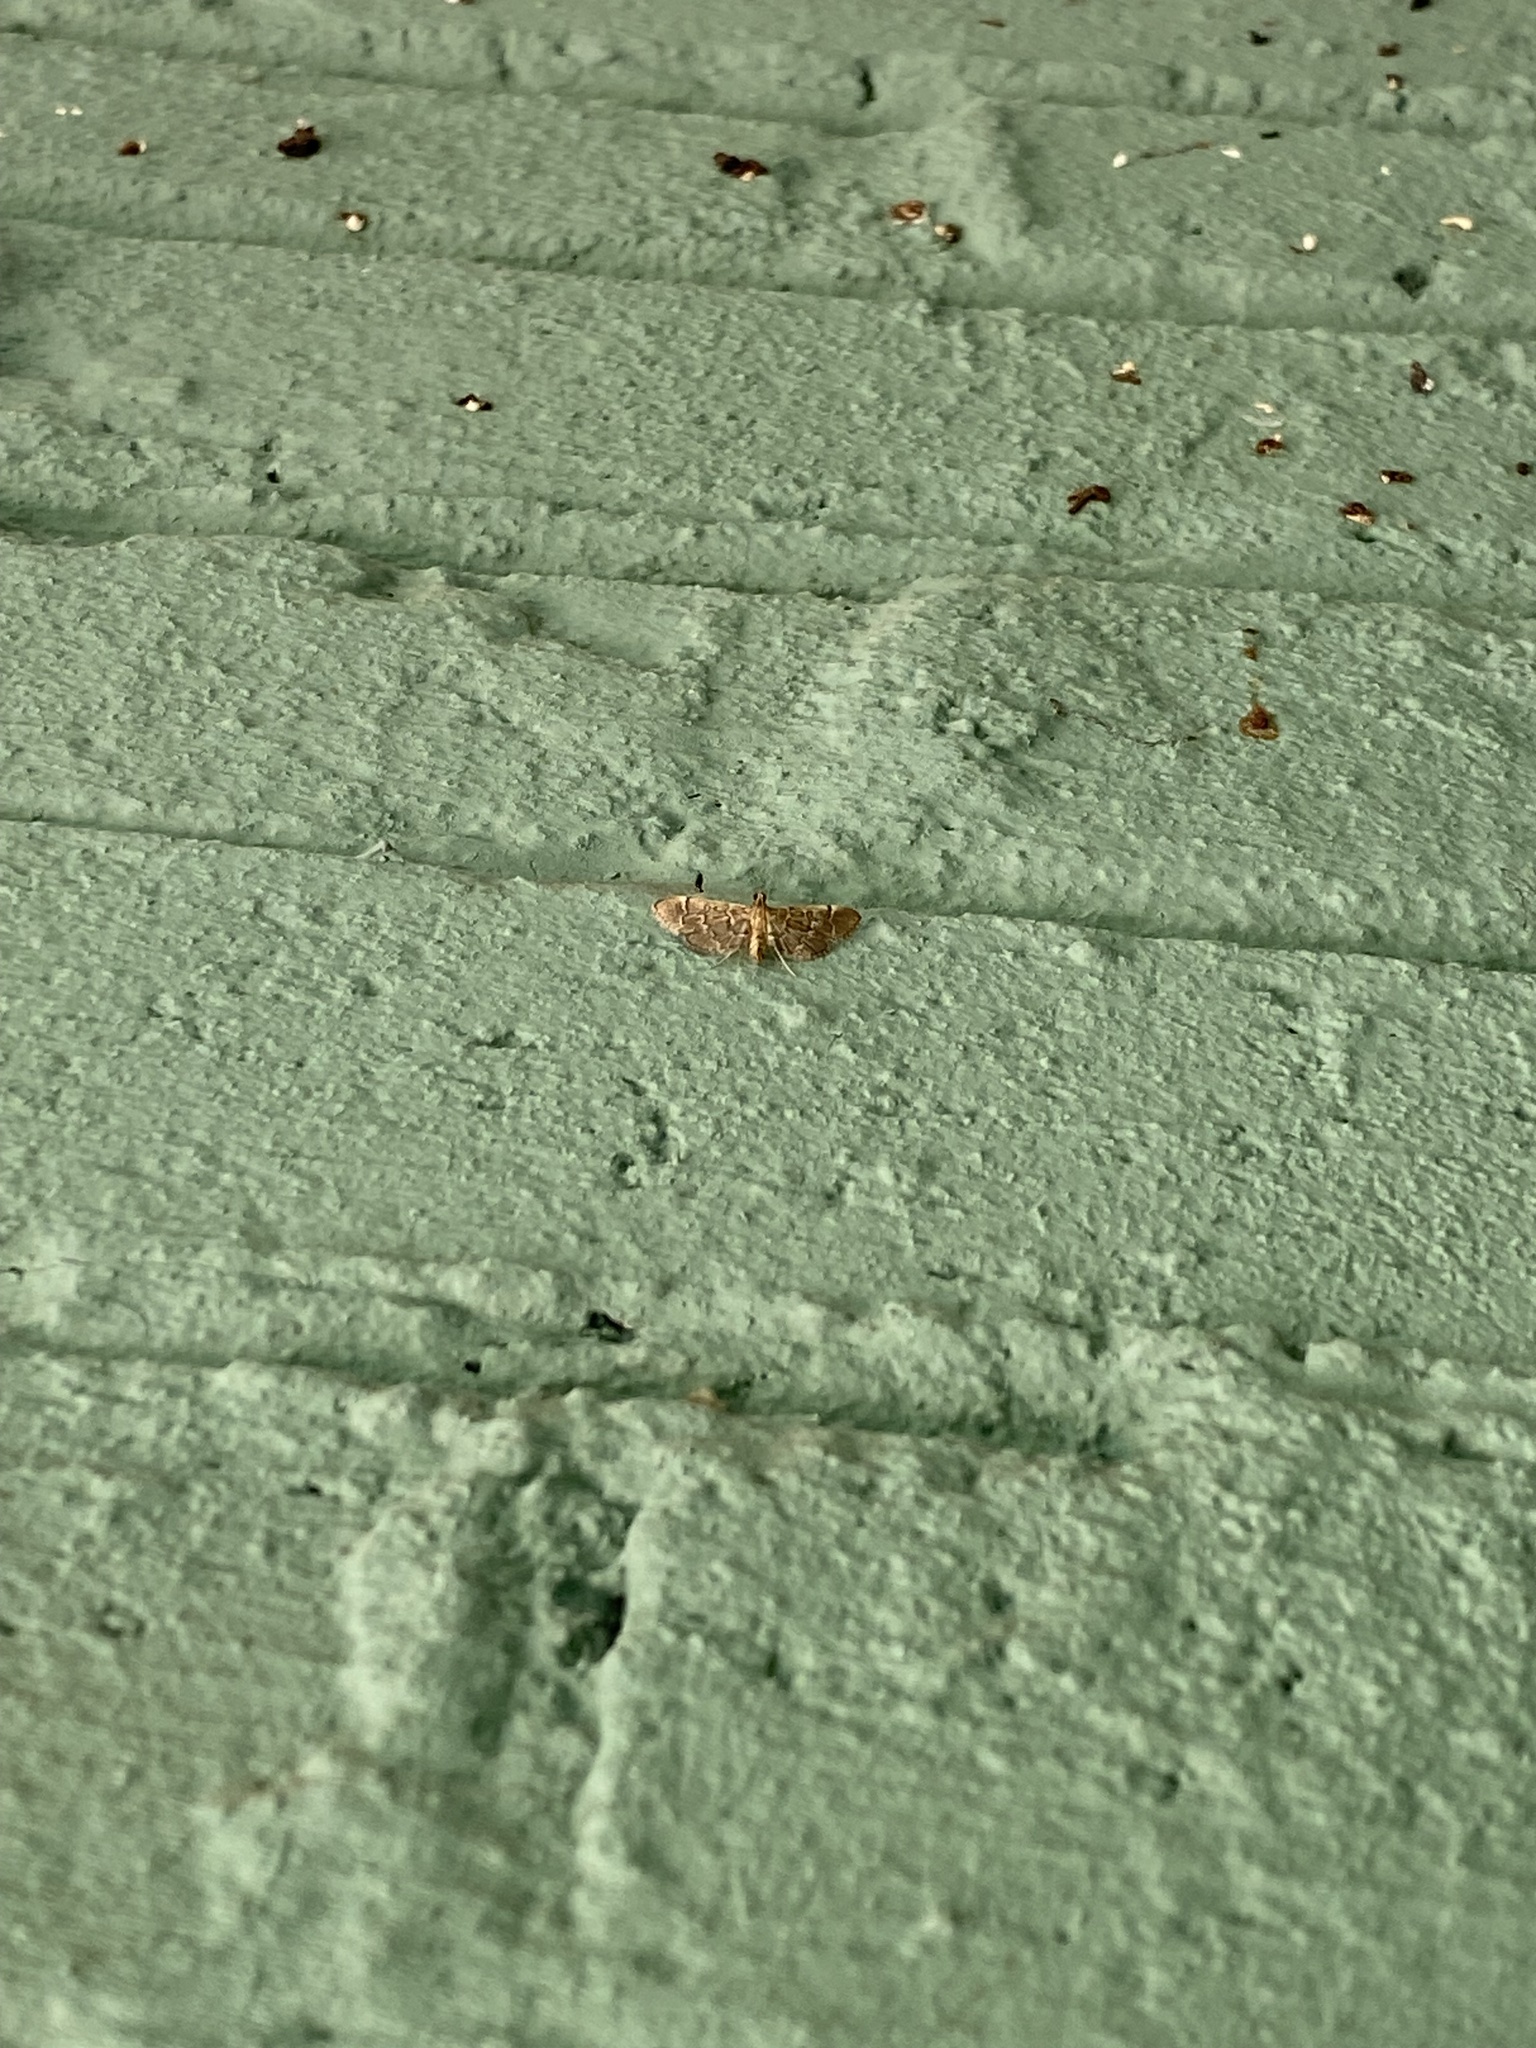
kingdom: Animalia
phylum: Arthropoda
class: Insecta
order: Lepidoptera
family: Crambidae
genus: Duponchelia
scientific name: Duponchelia lanceolalis
